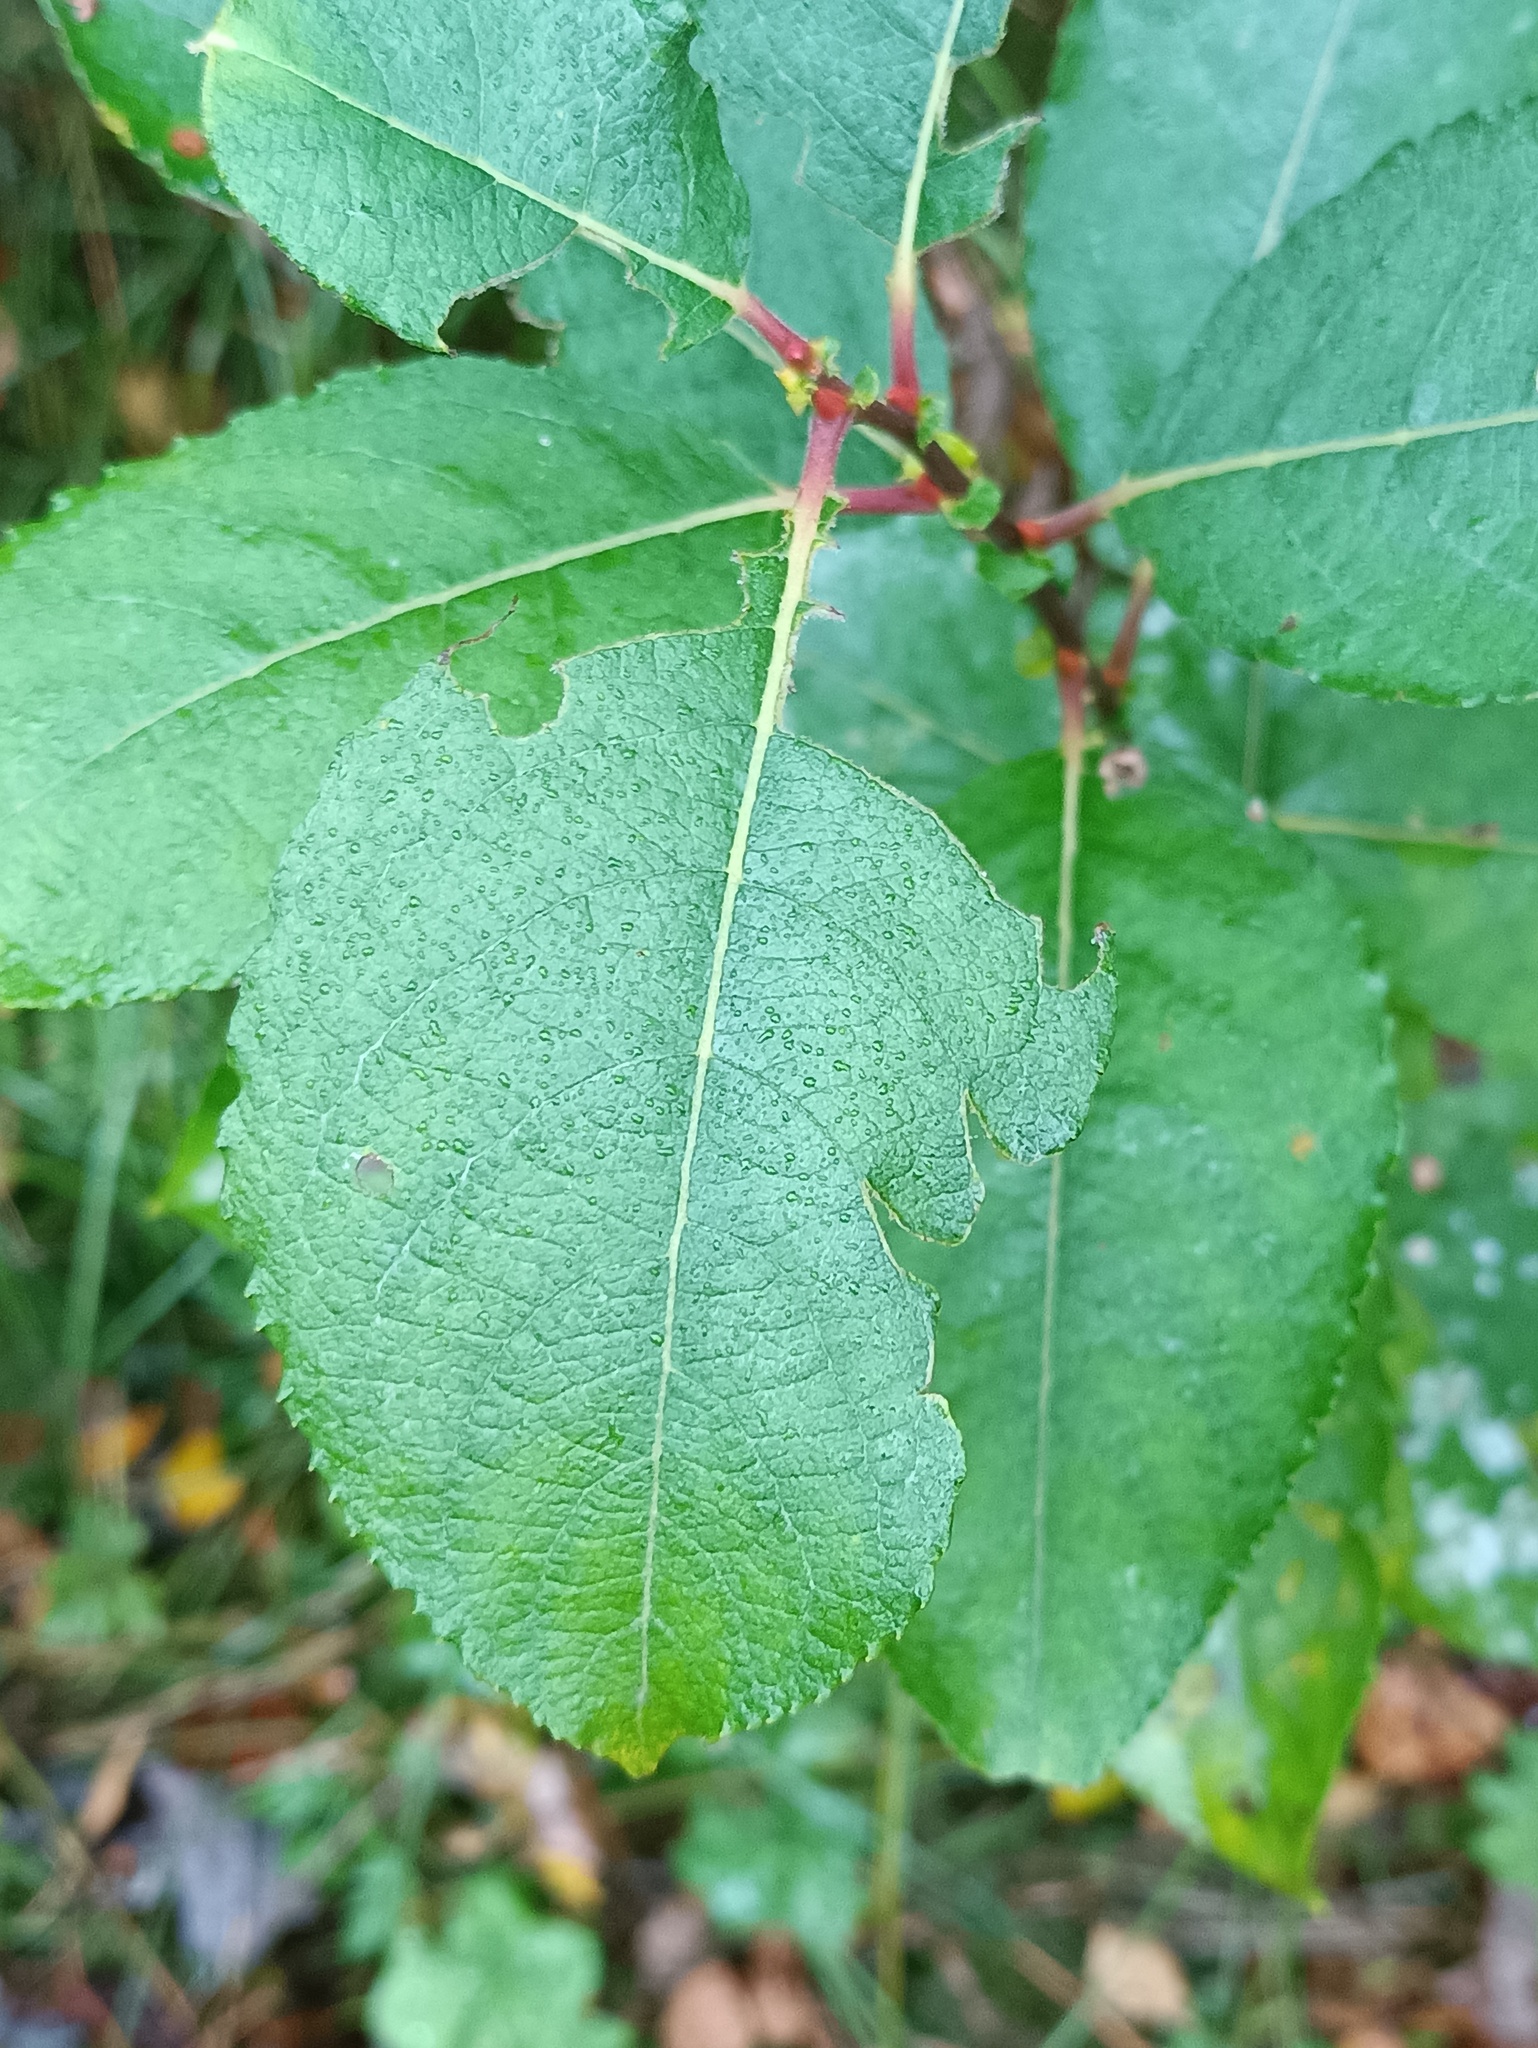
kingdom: Plantae
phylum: Tracheophyta
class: Magnoliopsida
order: Malpighiales
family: Salicaceae
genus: Salix
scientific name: Salix caprea
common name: Goat willow
